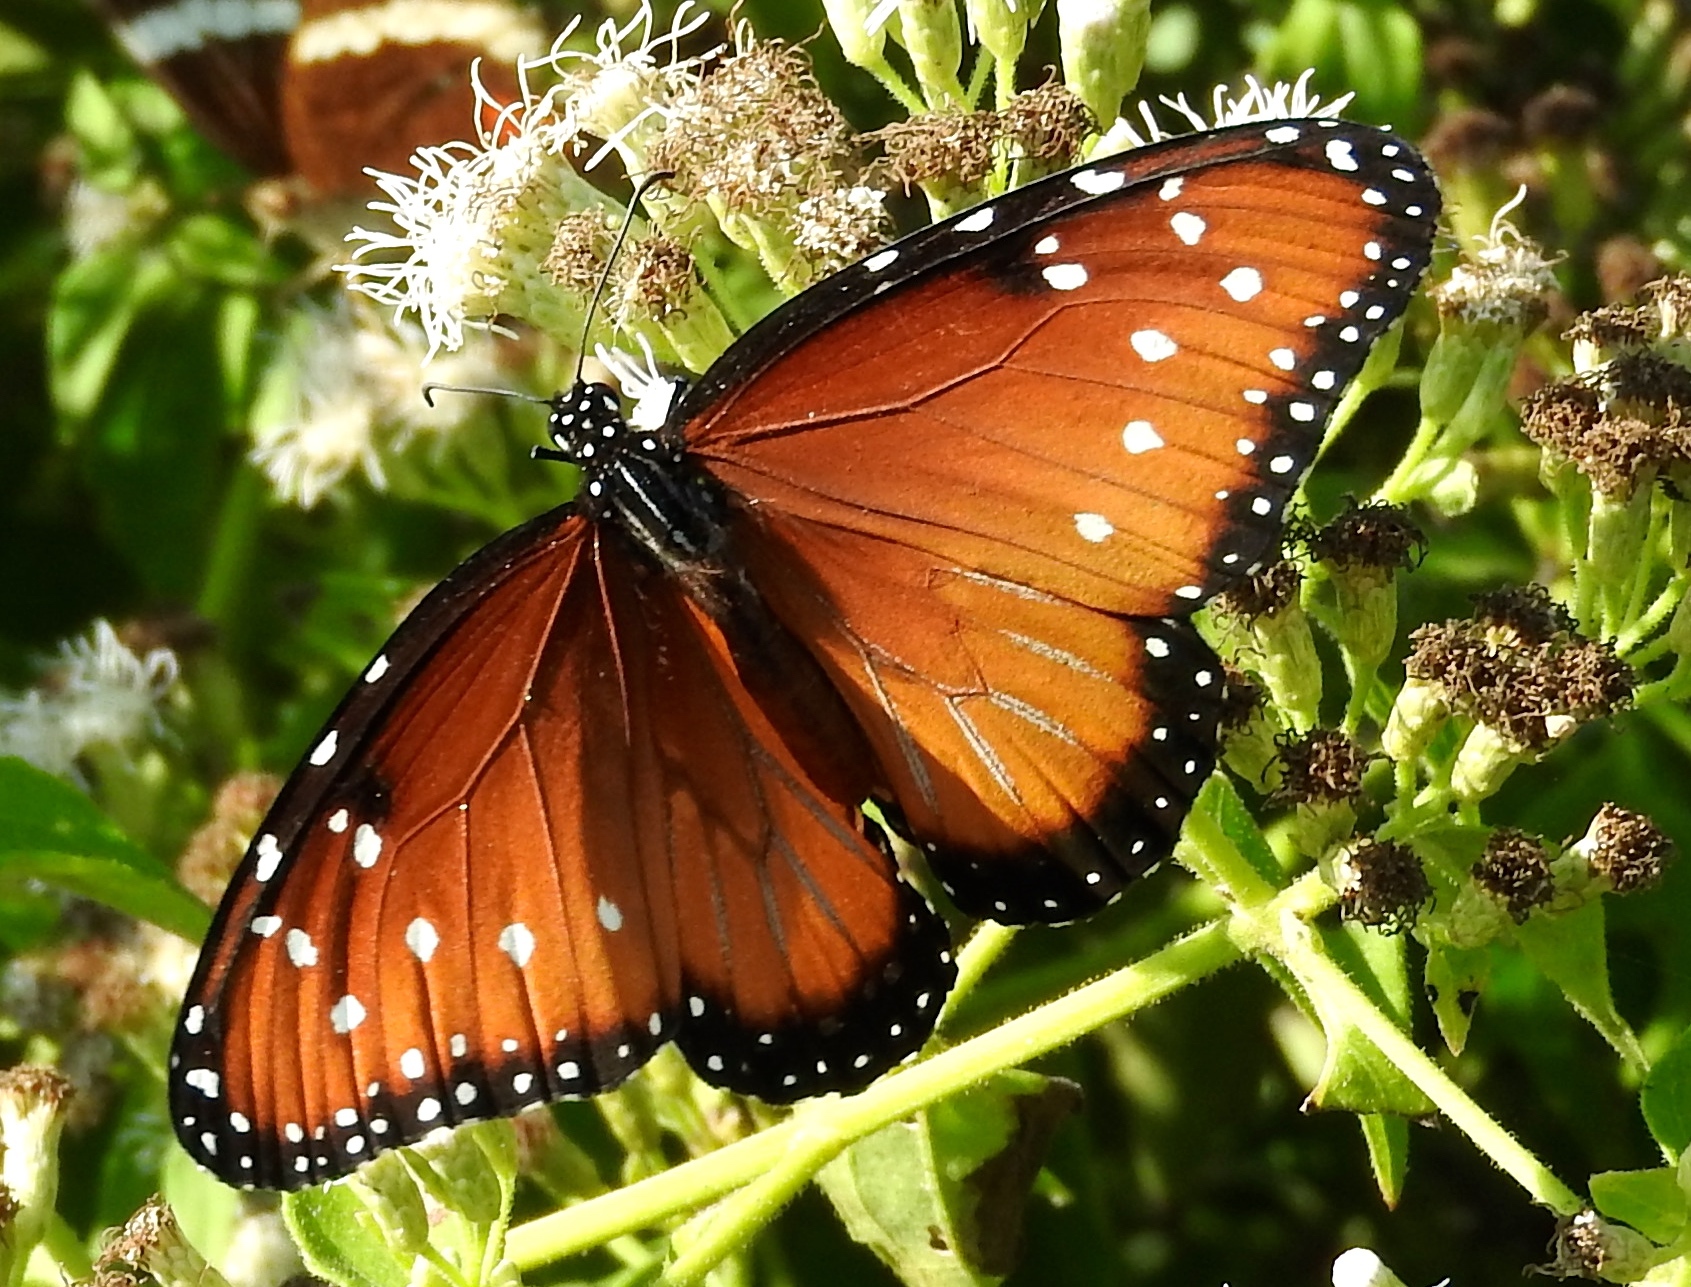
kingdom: Animalia
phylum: Arthropoda
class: Insecta
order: Lepidoptera
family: Nymphalidae
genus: Danaus
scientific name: Danaus gilippus
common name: Queen
